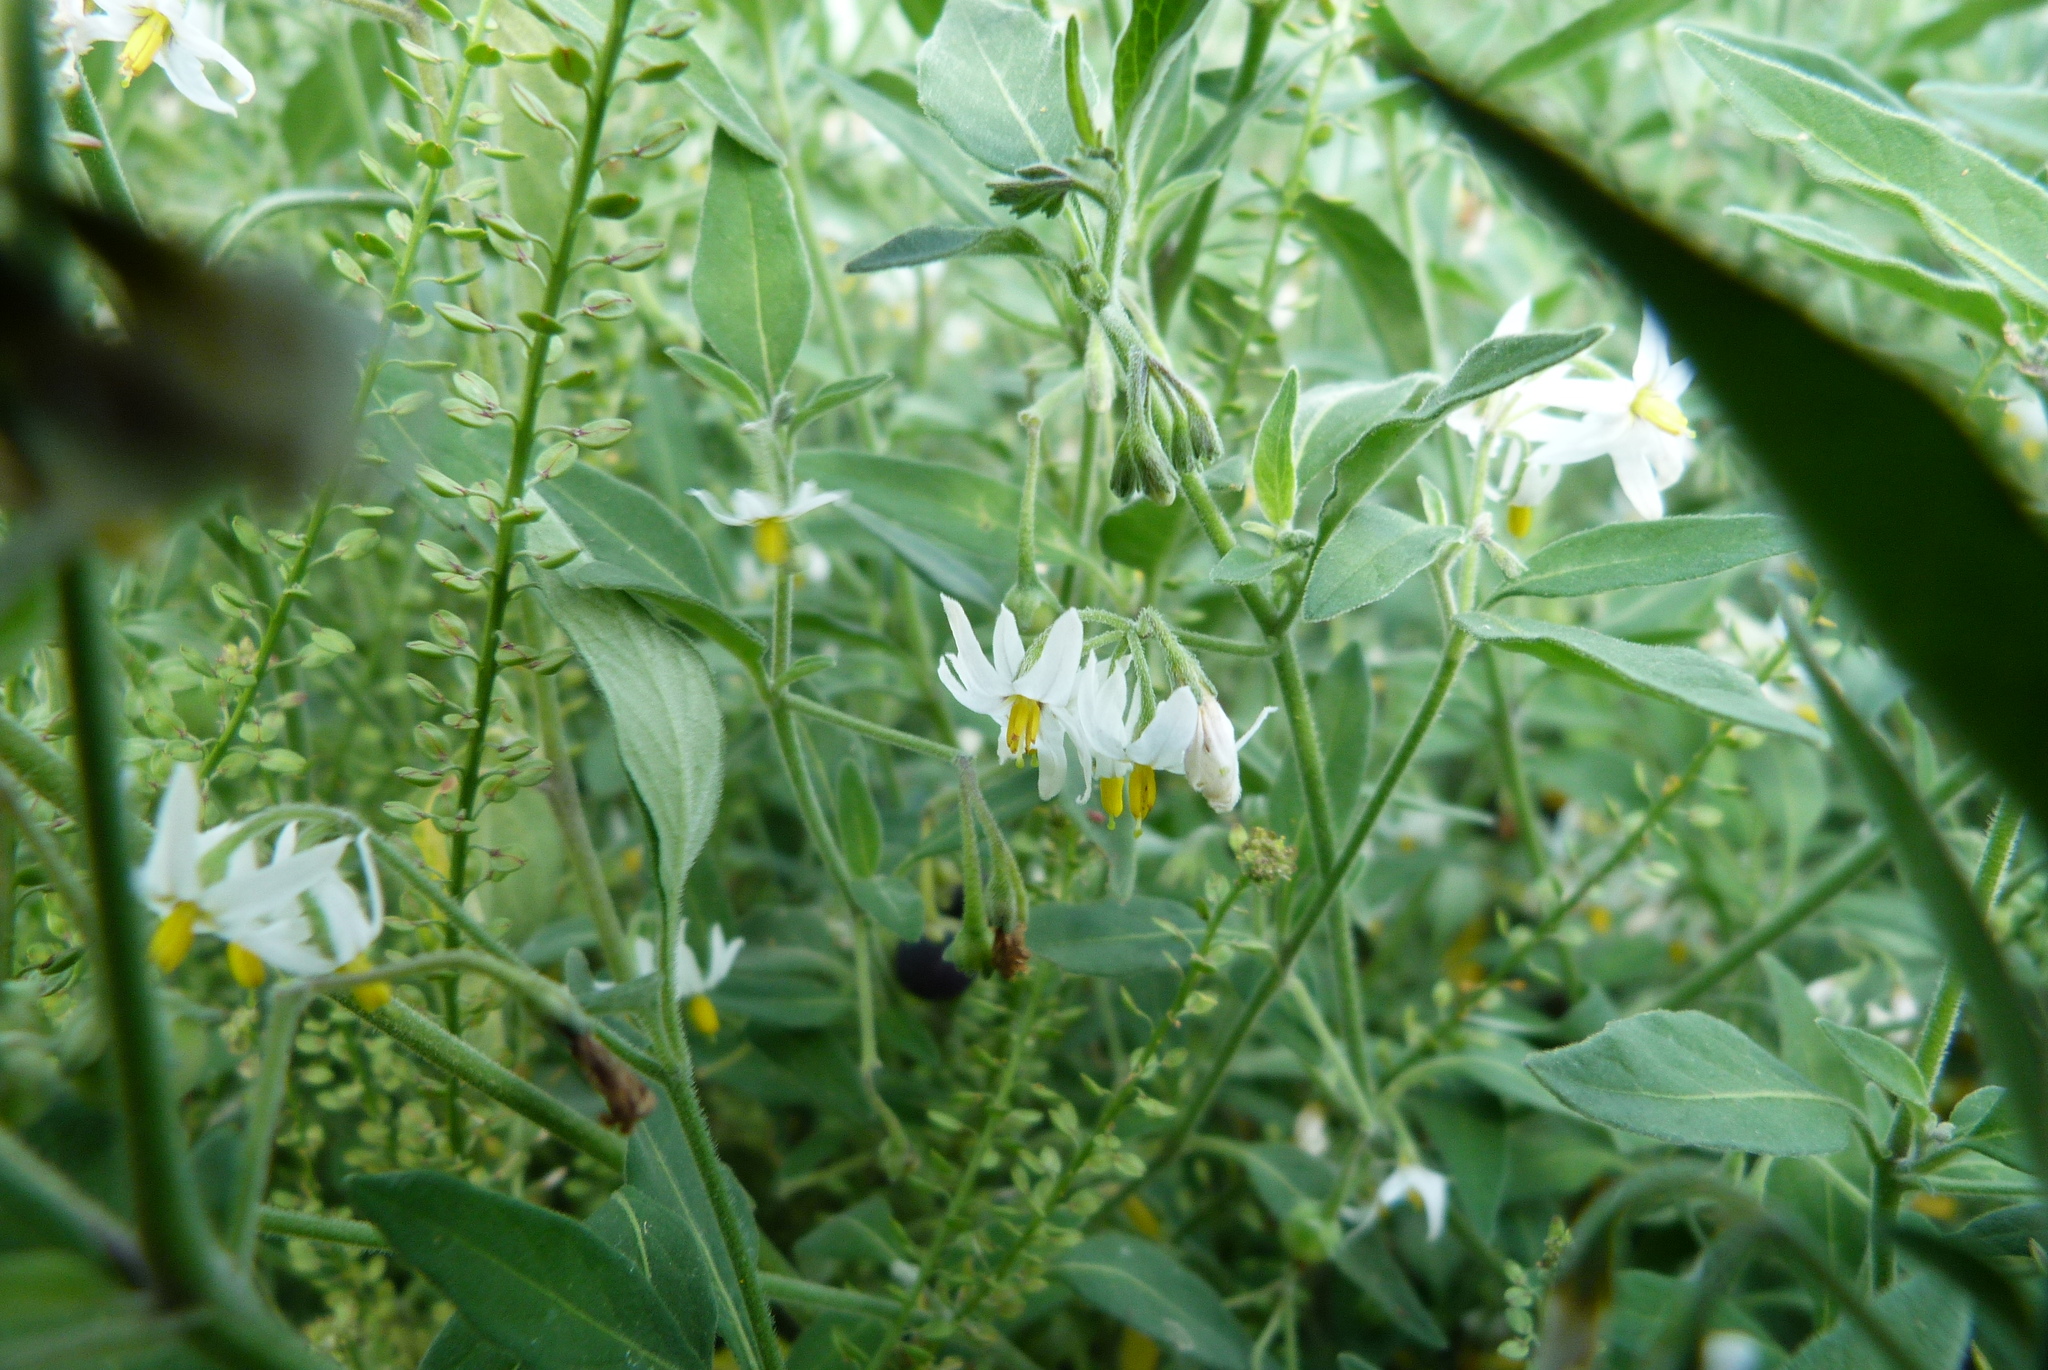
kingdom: Plantae
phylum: Tracheophyta
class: Magnoliopsida
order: Solanales
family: Solanaceae
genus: Solanum
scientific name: Solanum chenopodioides
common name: Tall nightshade
